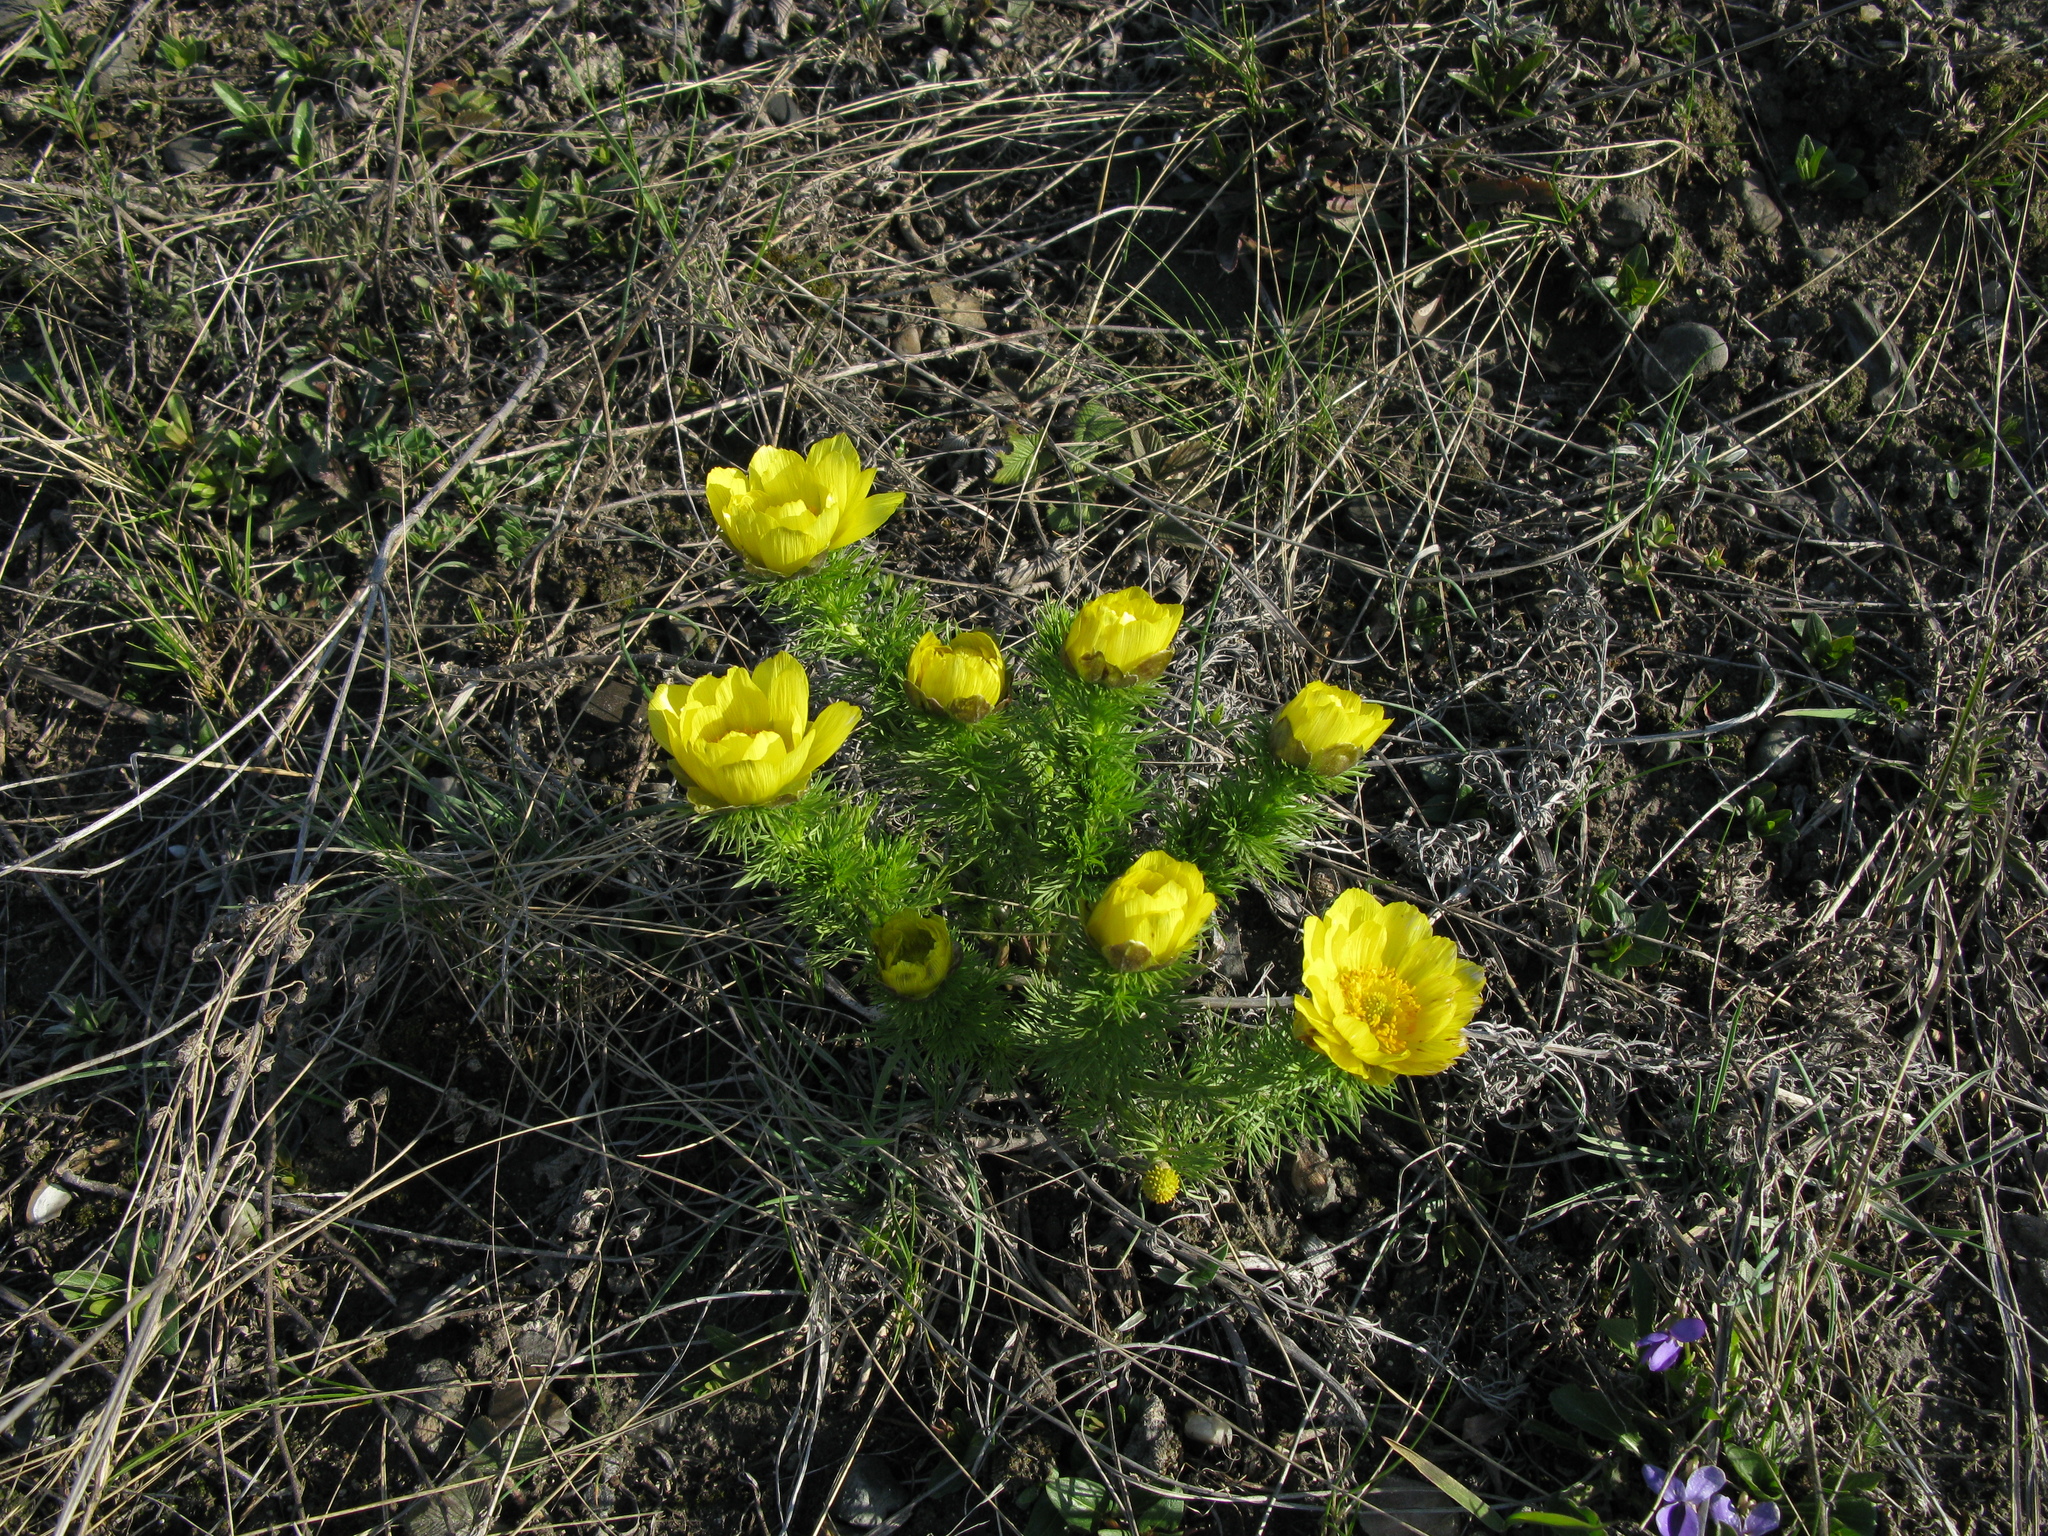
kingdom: Plantae
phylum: Tracheophyta
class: Magnoliopsida
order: Ranunculales
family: Ranunculaceae
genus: Adonis
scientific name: Adonis vernalis
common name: Yellow pheasants-eye
